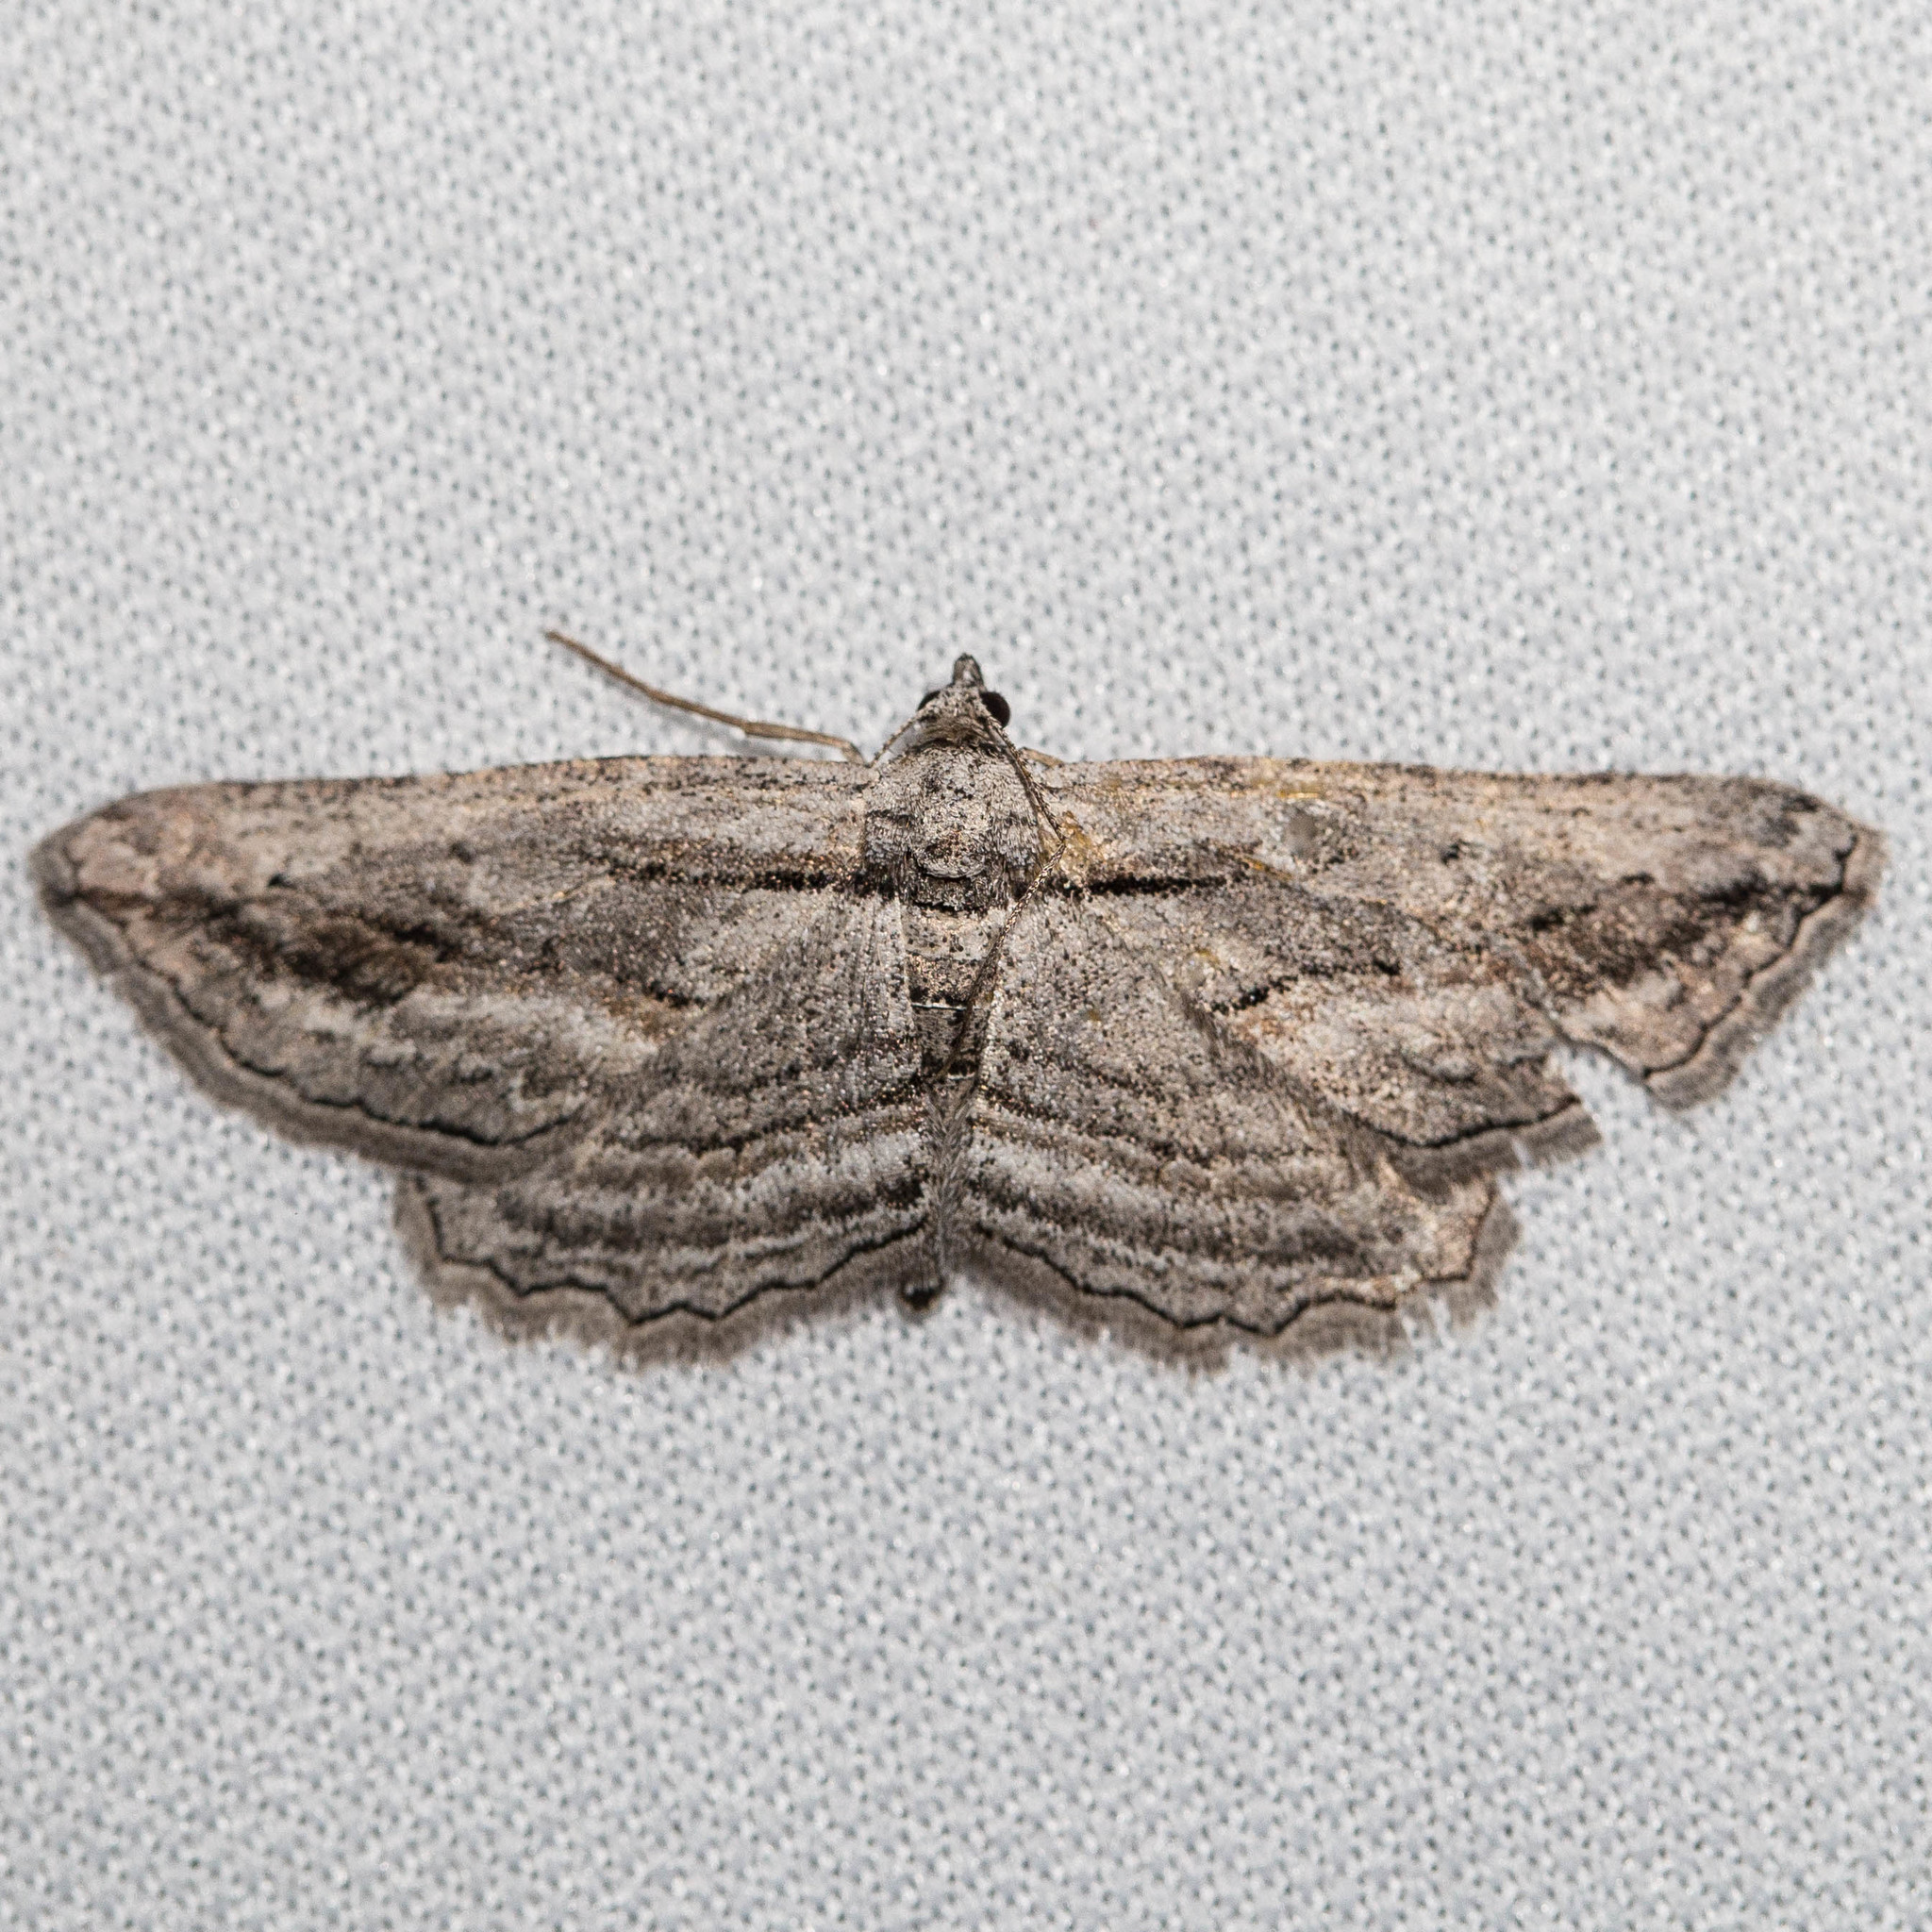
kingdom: Animalia
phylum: Arthropoda
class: Insecta
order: Lepidoptera
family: Geometridae
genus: Pterotaea
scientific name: Pterotaea lamiaria
